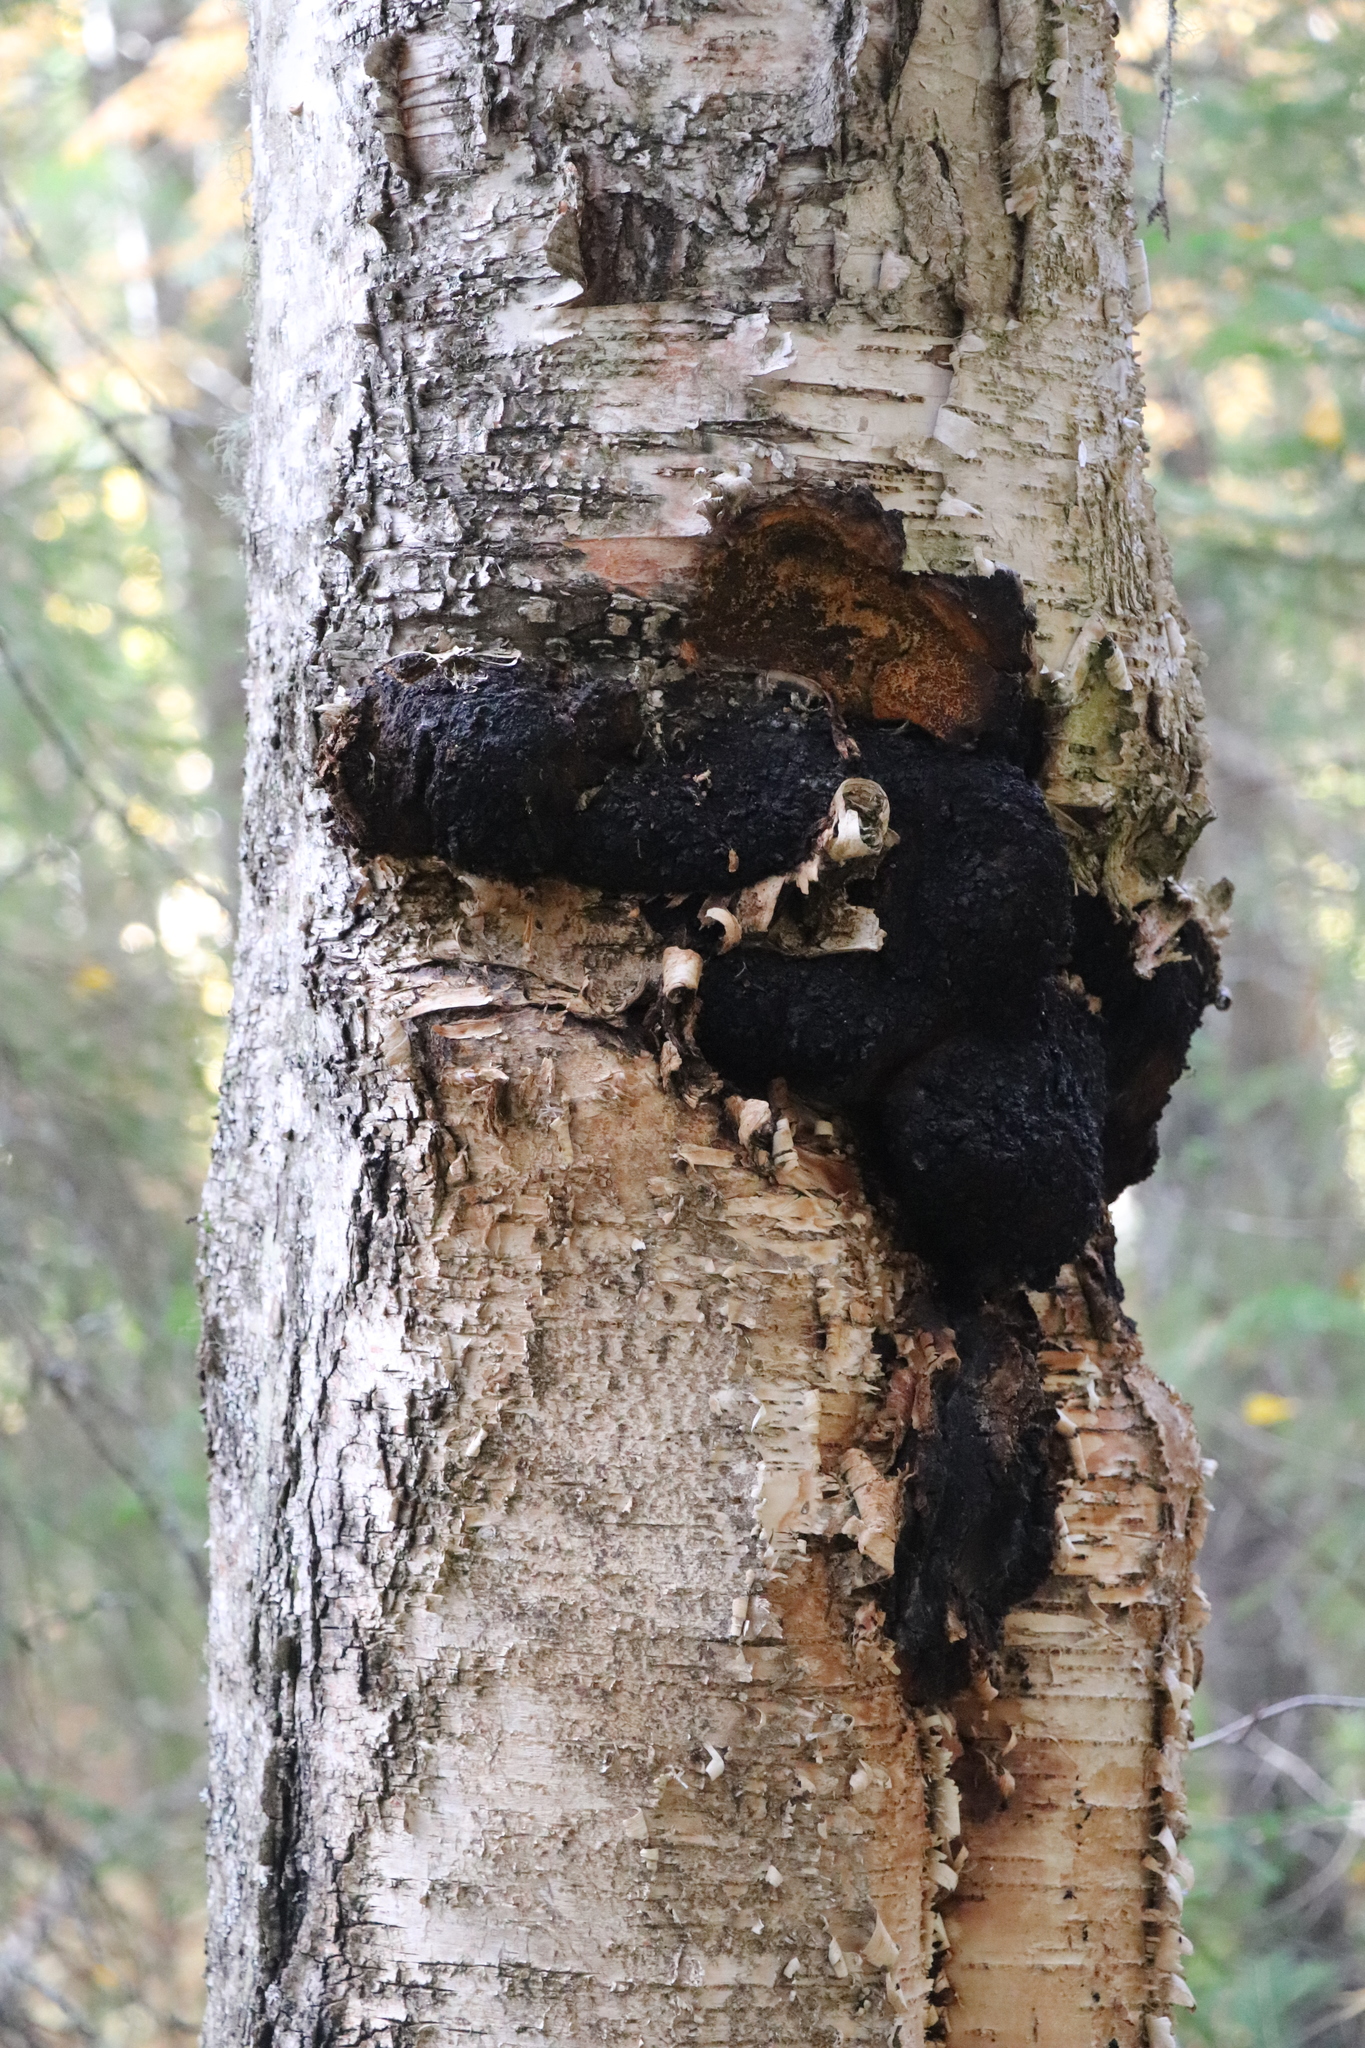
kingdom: Fungi
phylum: Basidiomycota
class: Agaricomycetes
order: Hymenochaetales
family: Hymenochaetaceae
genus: Inonotus
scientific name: Inonotus obliquus
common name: Chaga
